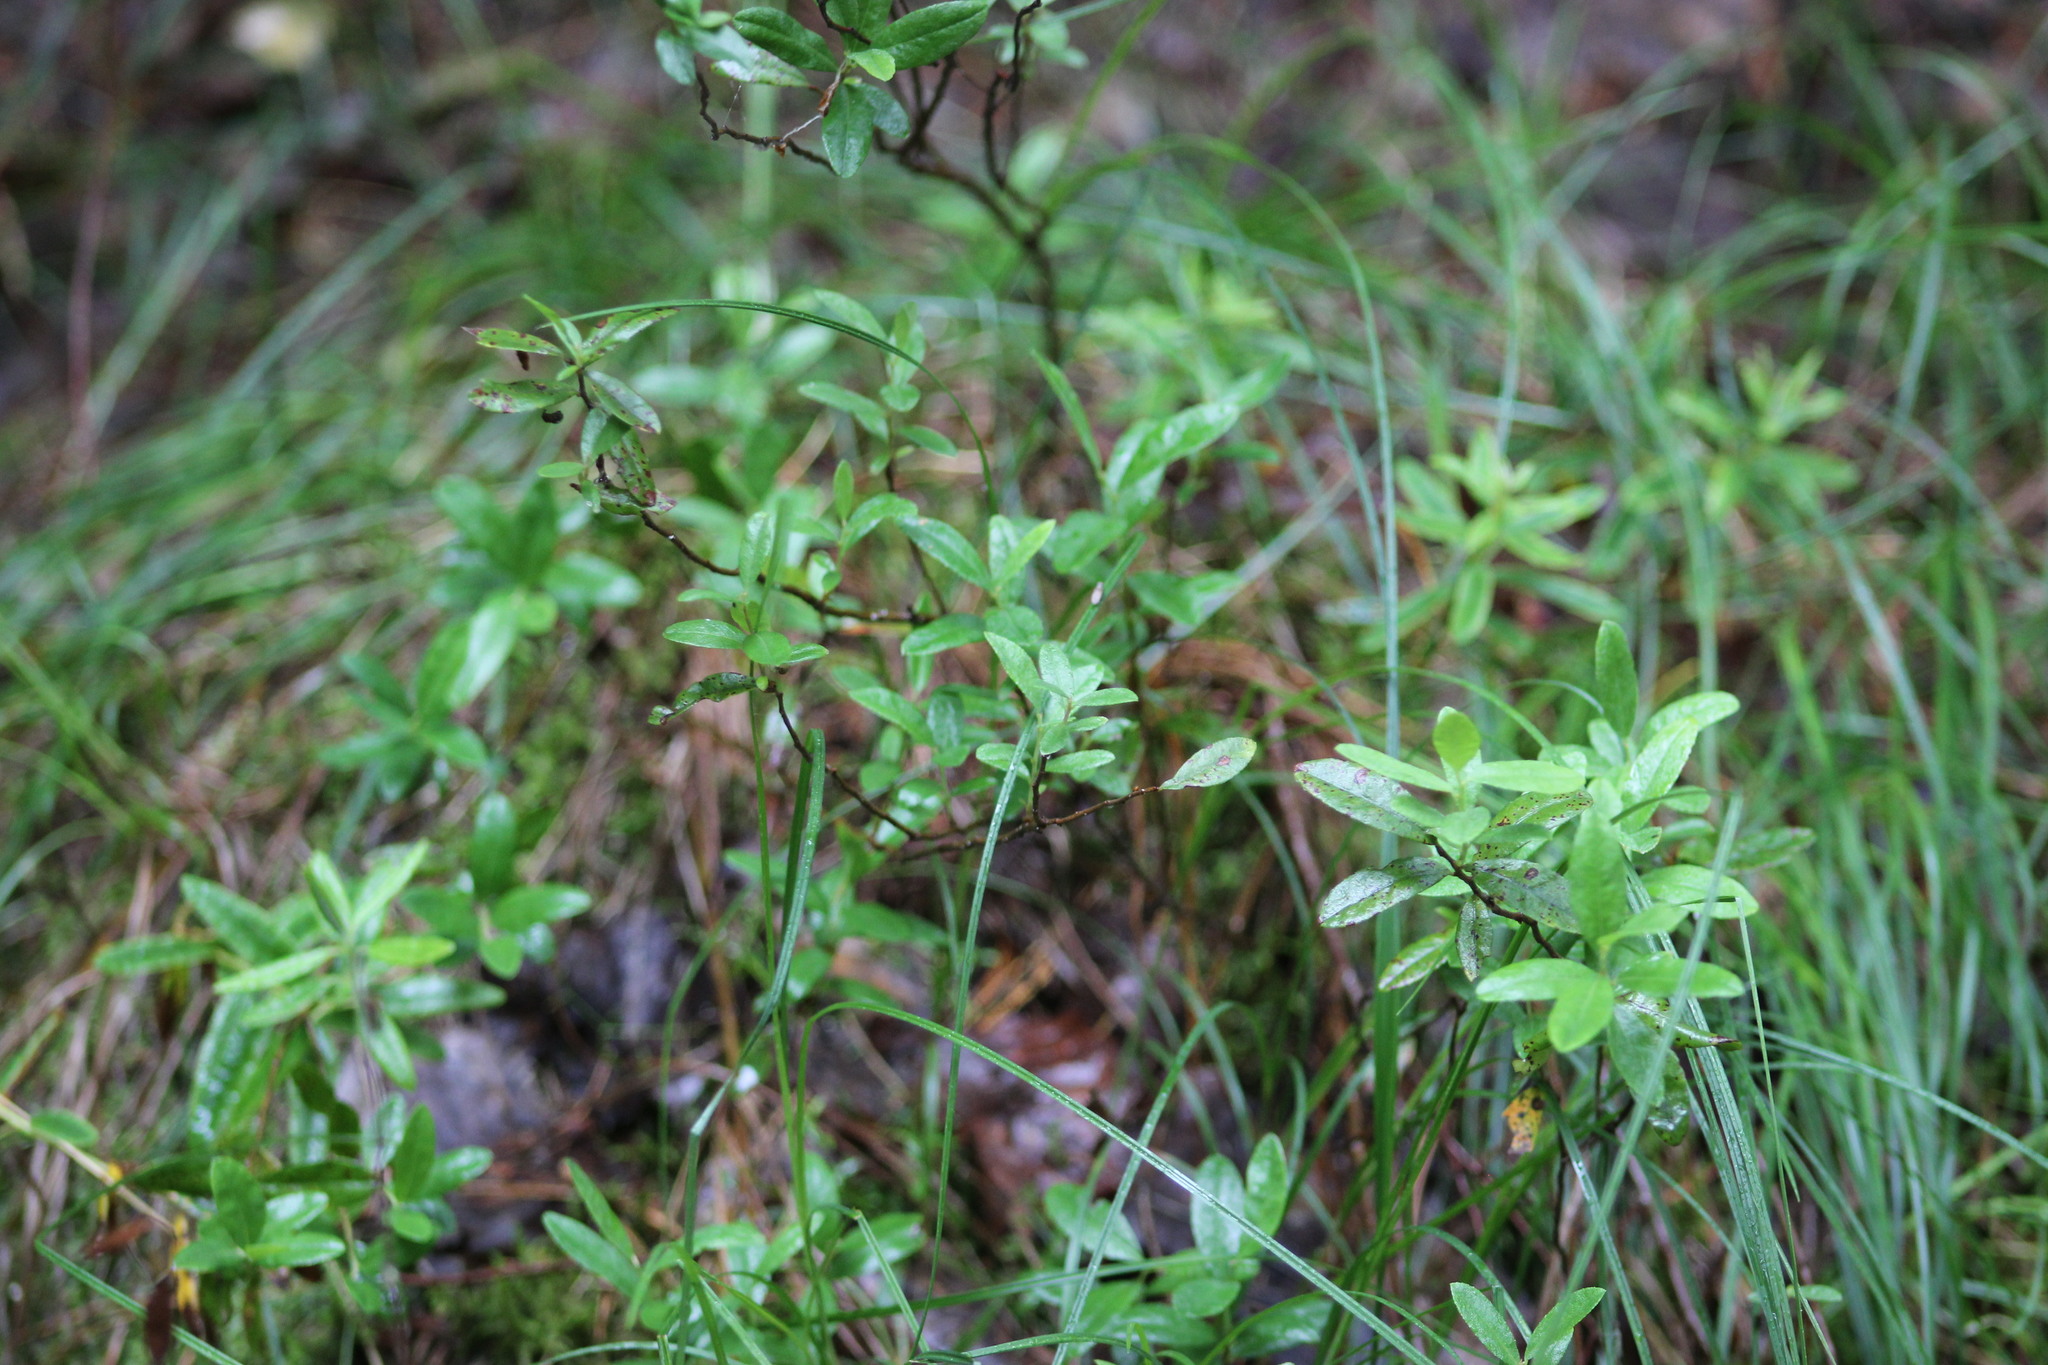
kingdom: Plantae
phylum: Tracheophyta
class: Magnoliopsida
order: Ericales
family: Ericaceae
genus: Chamaedaphne
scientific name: Chamaedaphne calyculata
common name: Leatherleaf
